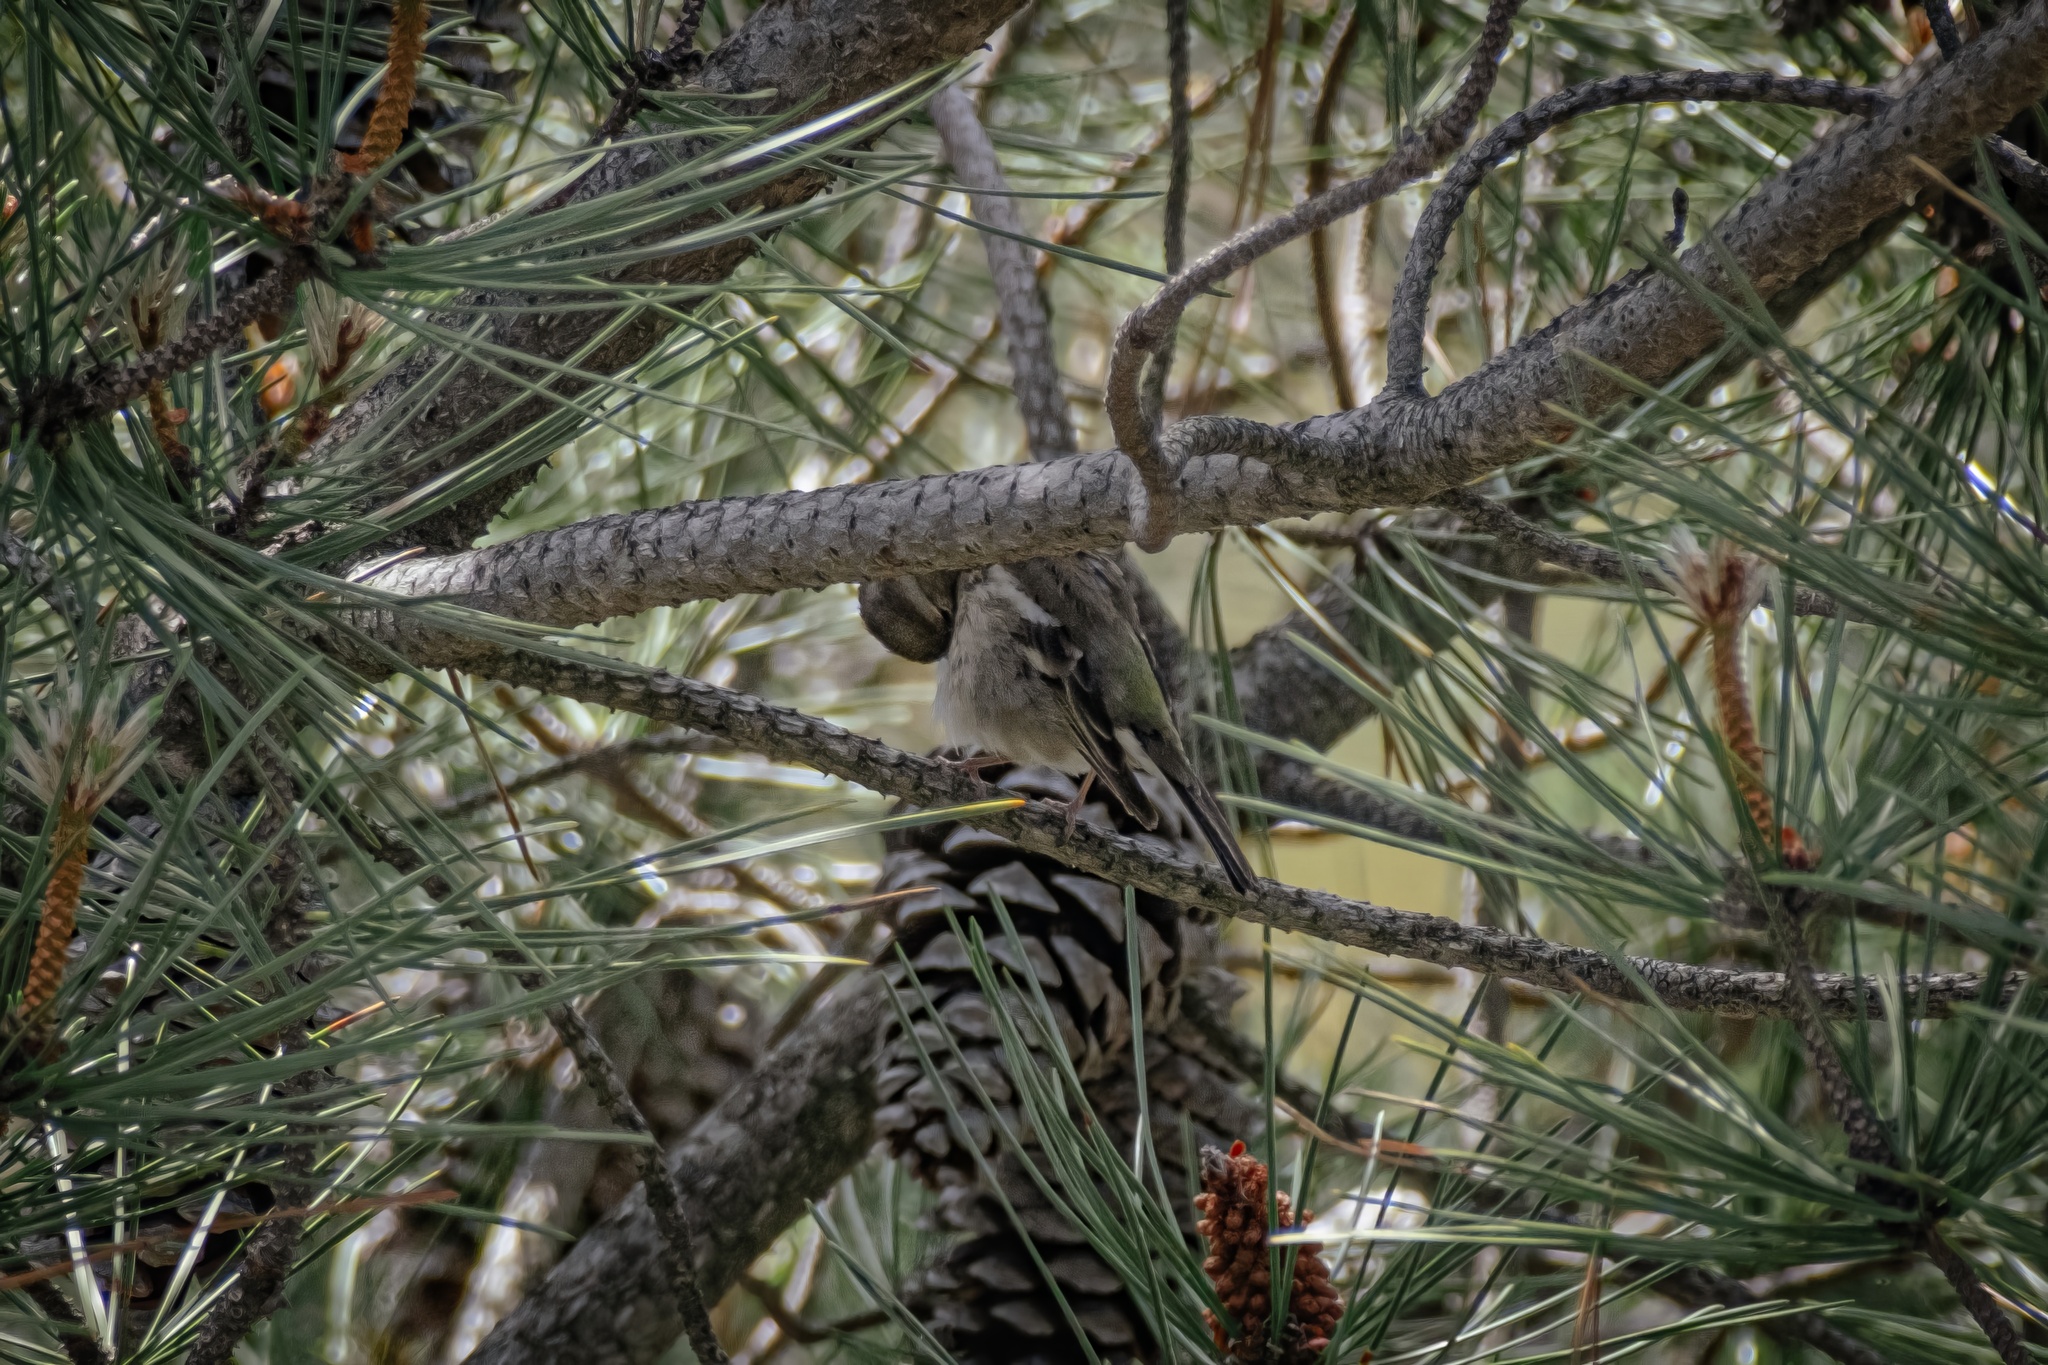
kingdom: Animalia
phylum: Chordata
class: Aves
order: Passeriformes
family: Fringillidae
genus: Fringilla
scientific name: Fringilla coelebs
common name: Common chaffinch
